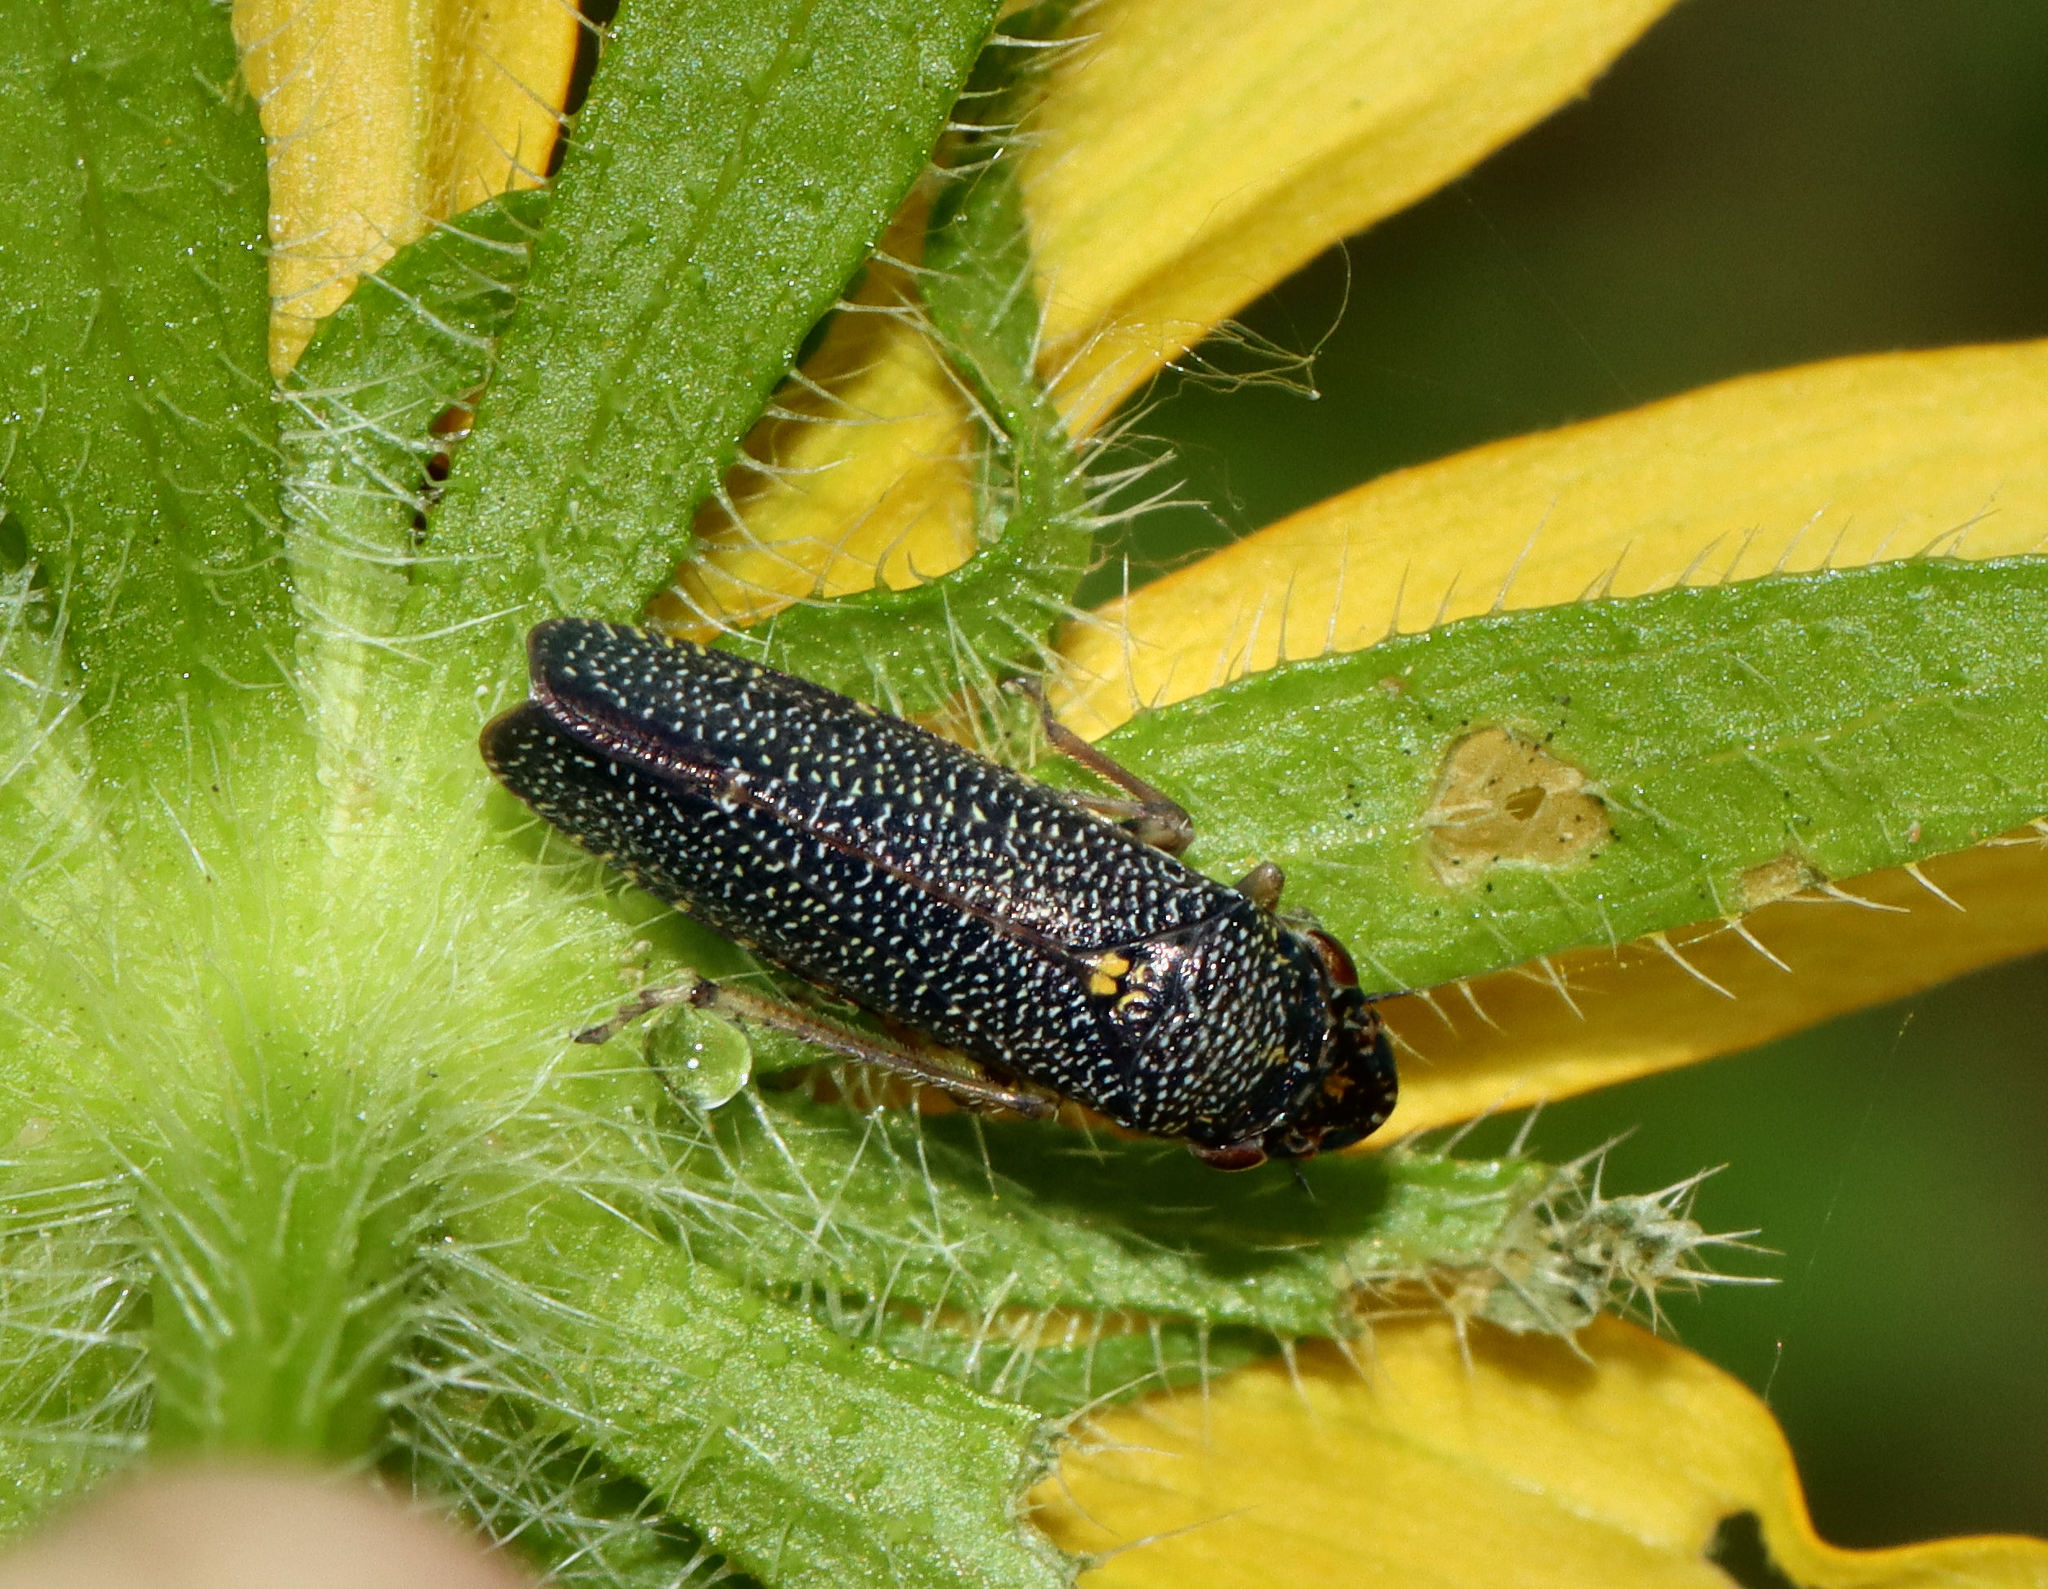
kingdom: Animalia
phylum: Arthropoda
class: Insecta
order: Hemiptera
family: Cicadellidae
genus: Paraulacizes
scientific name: Paraulacizes irrorata
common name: Speckled sharpshooter
